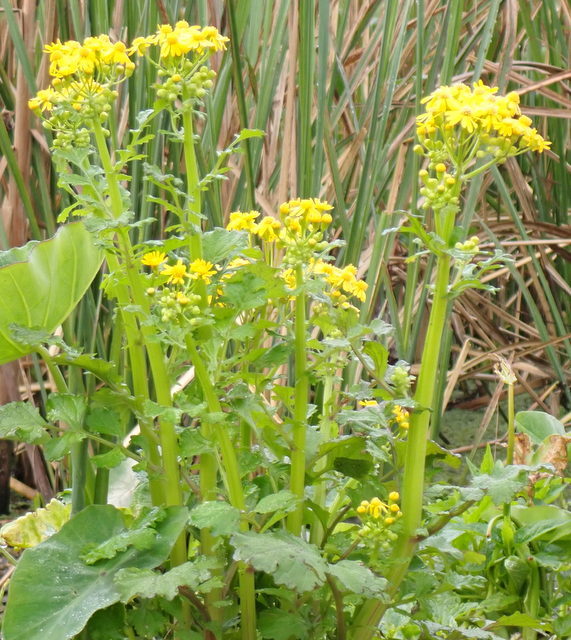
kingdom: Plantae
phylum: Tracheophyta
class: Magnoliopsida
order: Asterales
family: Asteraceae
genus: Packera
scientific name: Packera glabella
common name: Butterweed
